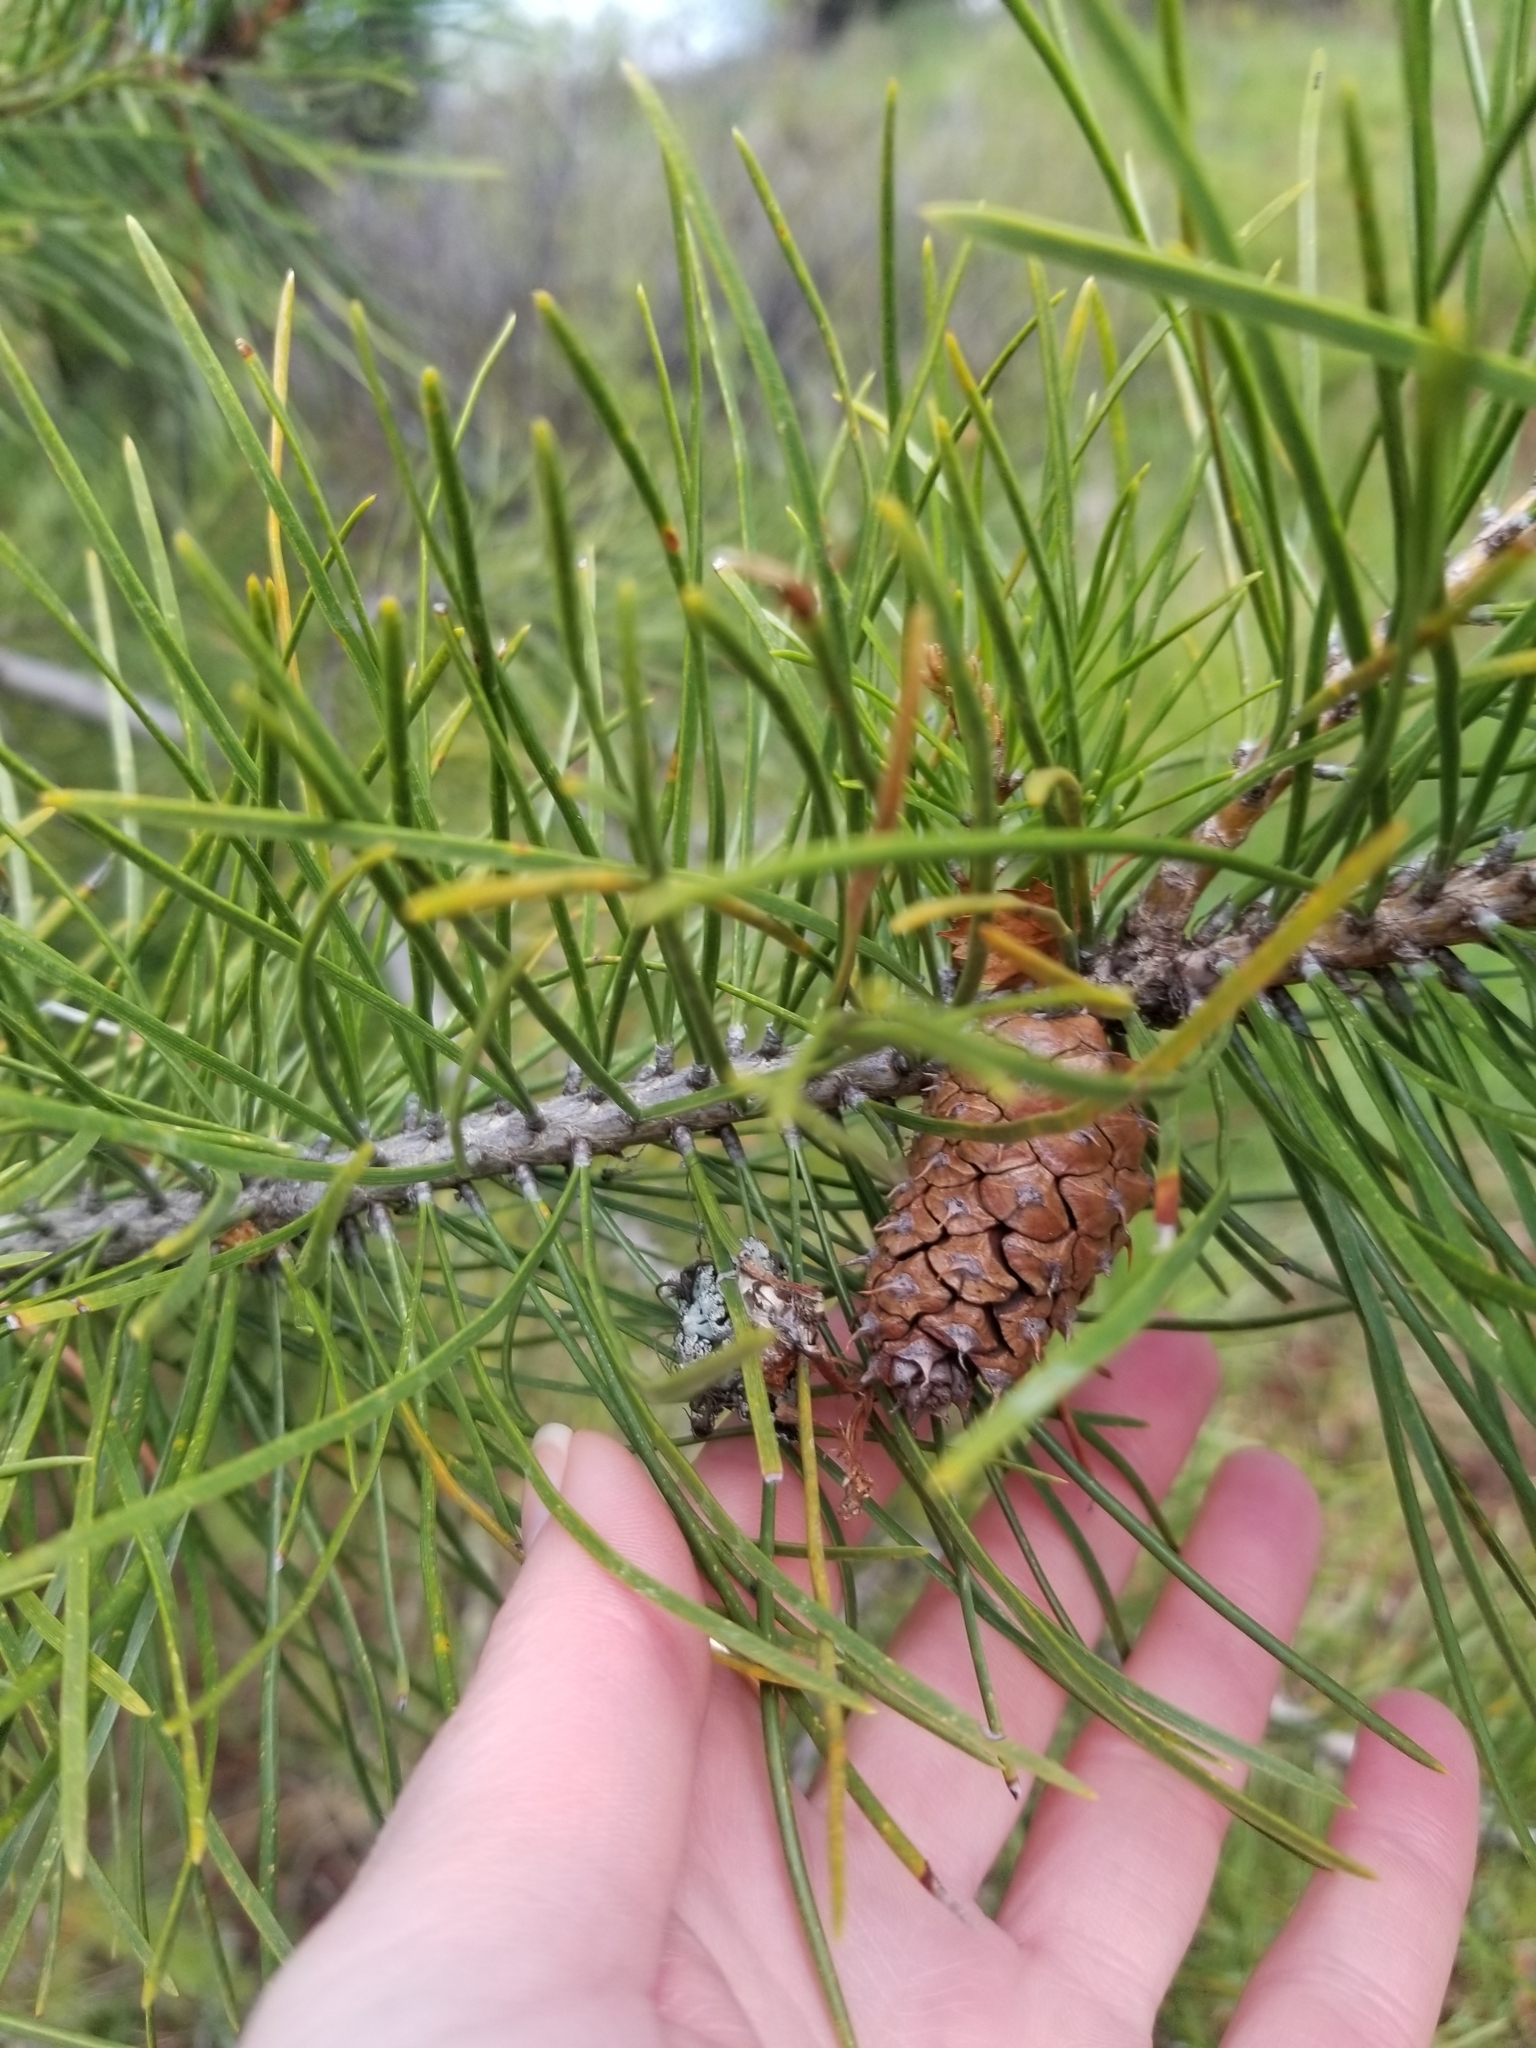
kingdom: Plantae
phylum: Tracheophyta
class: Pinopsida
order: Pinales
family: Pinaceae
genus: Pinus
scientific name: Pinus contorta
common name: Lodgepole pine
